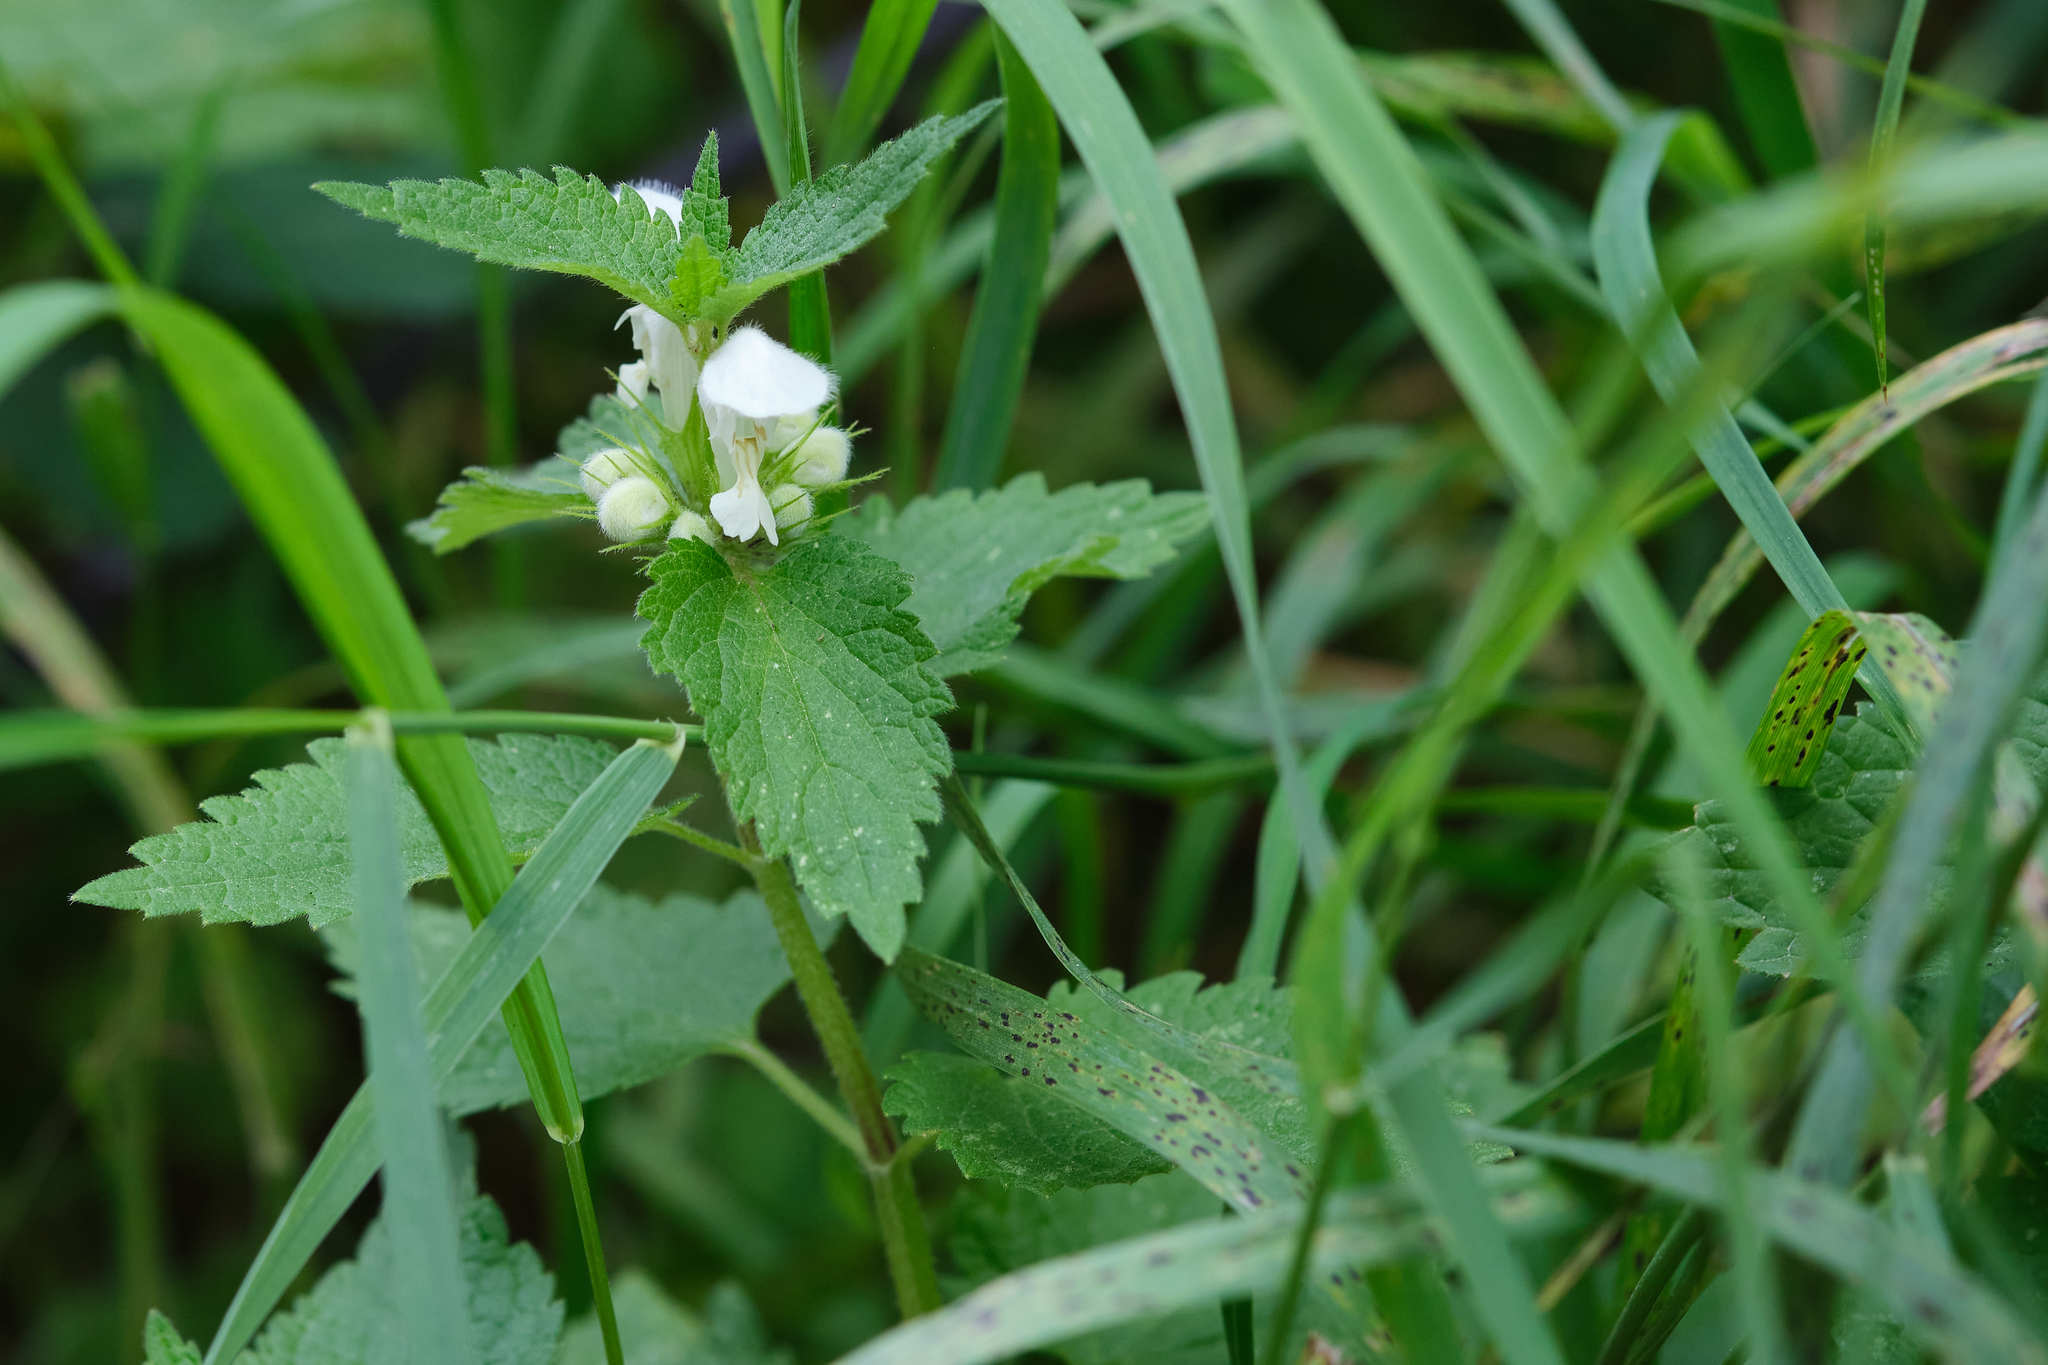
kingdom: Plantae
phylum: Tracheophyta
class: Magnoliopsida
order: Lamiales
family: Lamiaceae
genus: Lamium
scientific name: Lamium album
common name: White dead-nettle
